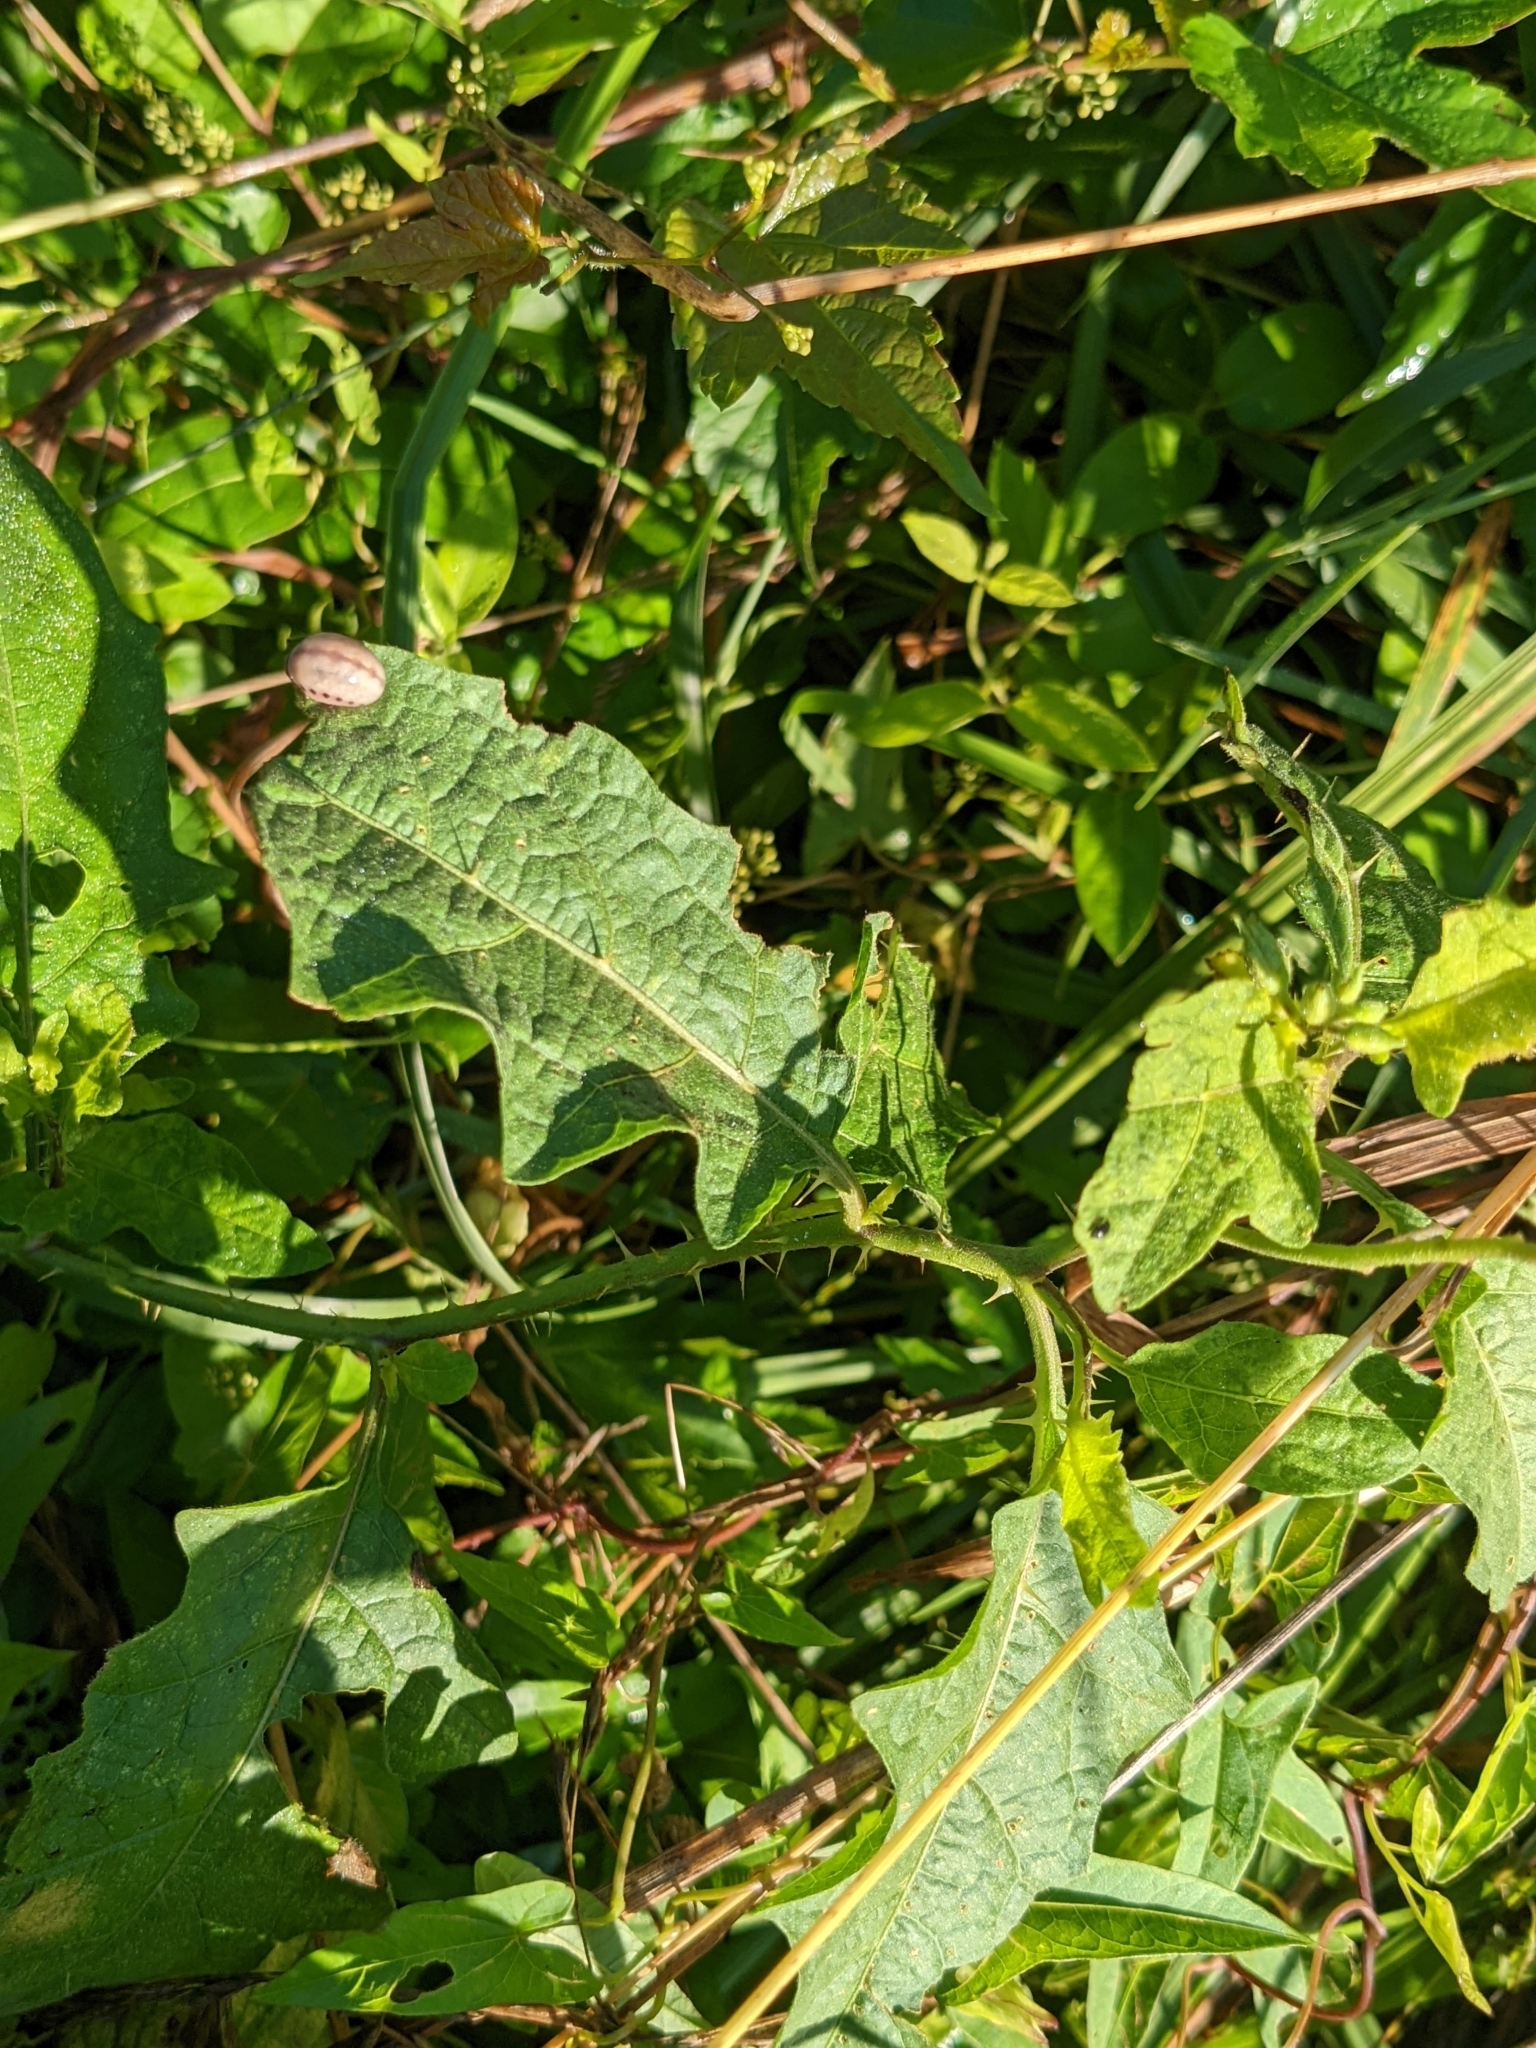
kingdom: Animalia
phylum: Arthropoda
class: Insecta
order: Coleoptera
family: Chrysomelidae
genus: Leptinotarsa
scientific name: Leptinotarsa juncta
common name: False potato beetle
